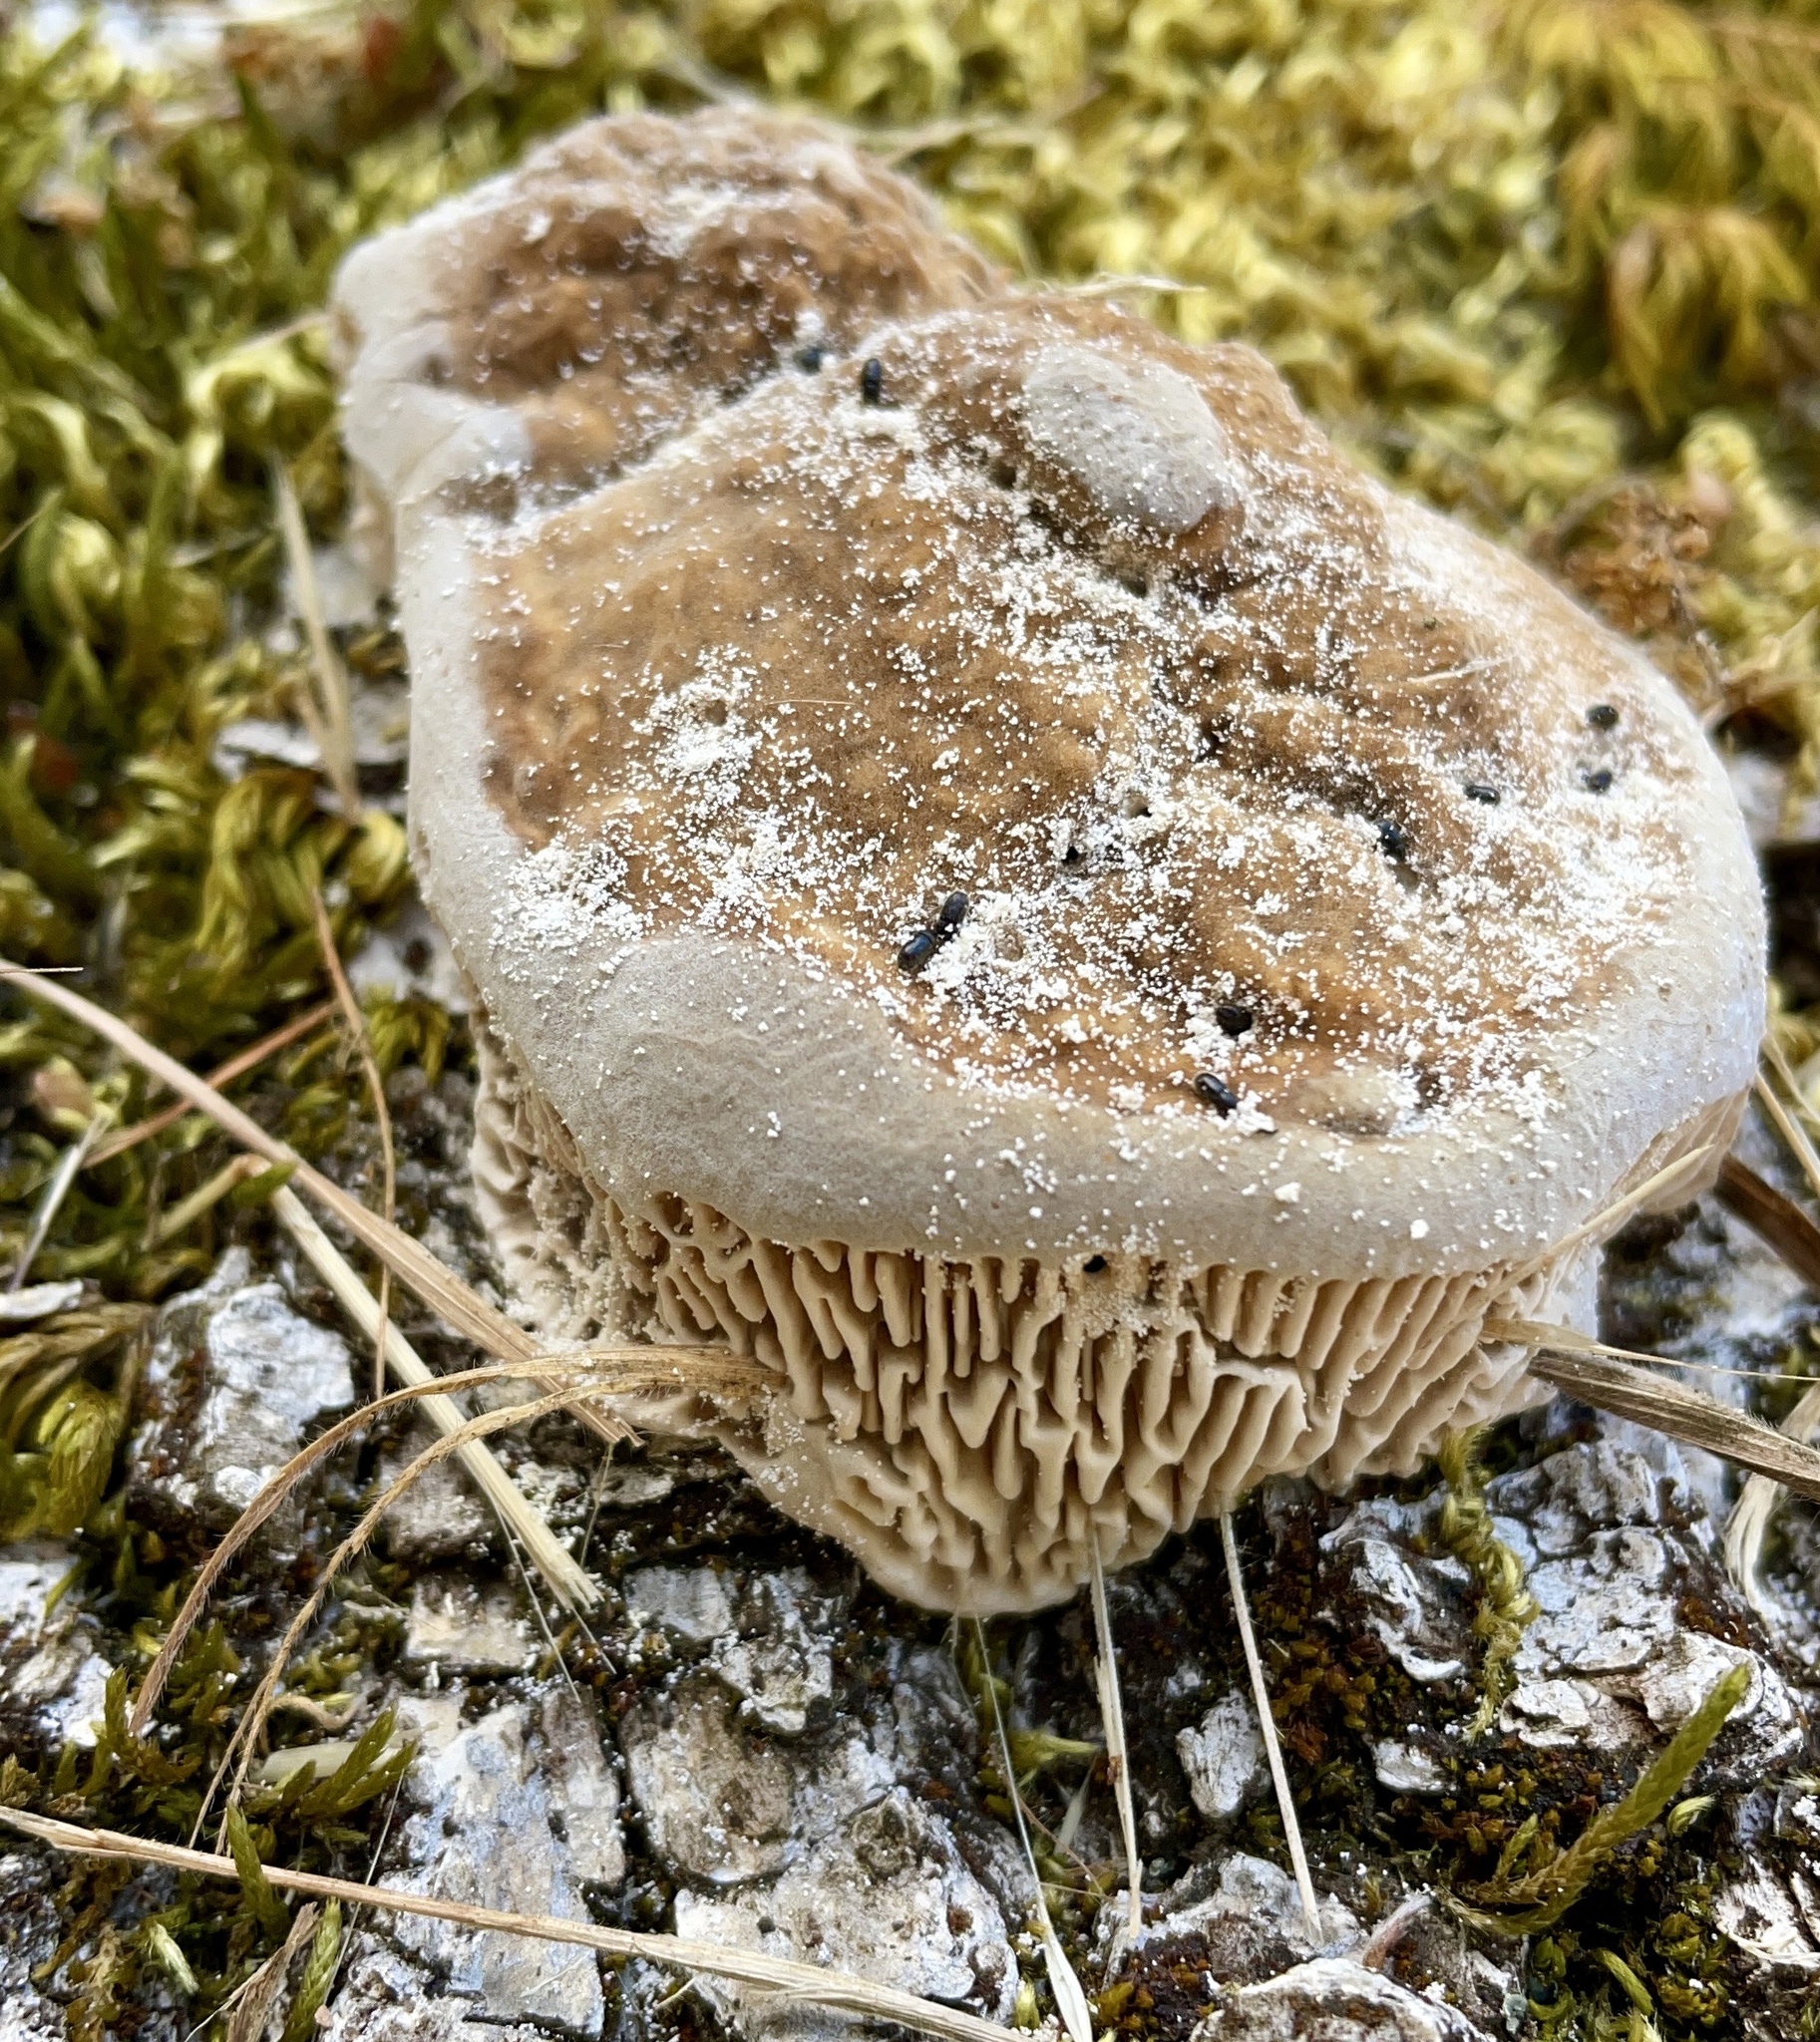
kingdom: Fungi
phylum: Basidiomycota
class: Agaricomycetes
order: Polyporales
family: Fomitopsidaceae
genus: Fomitopsis
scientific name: Fomitopsis
